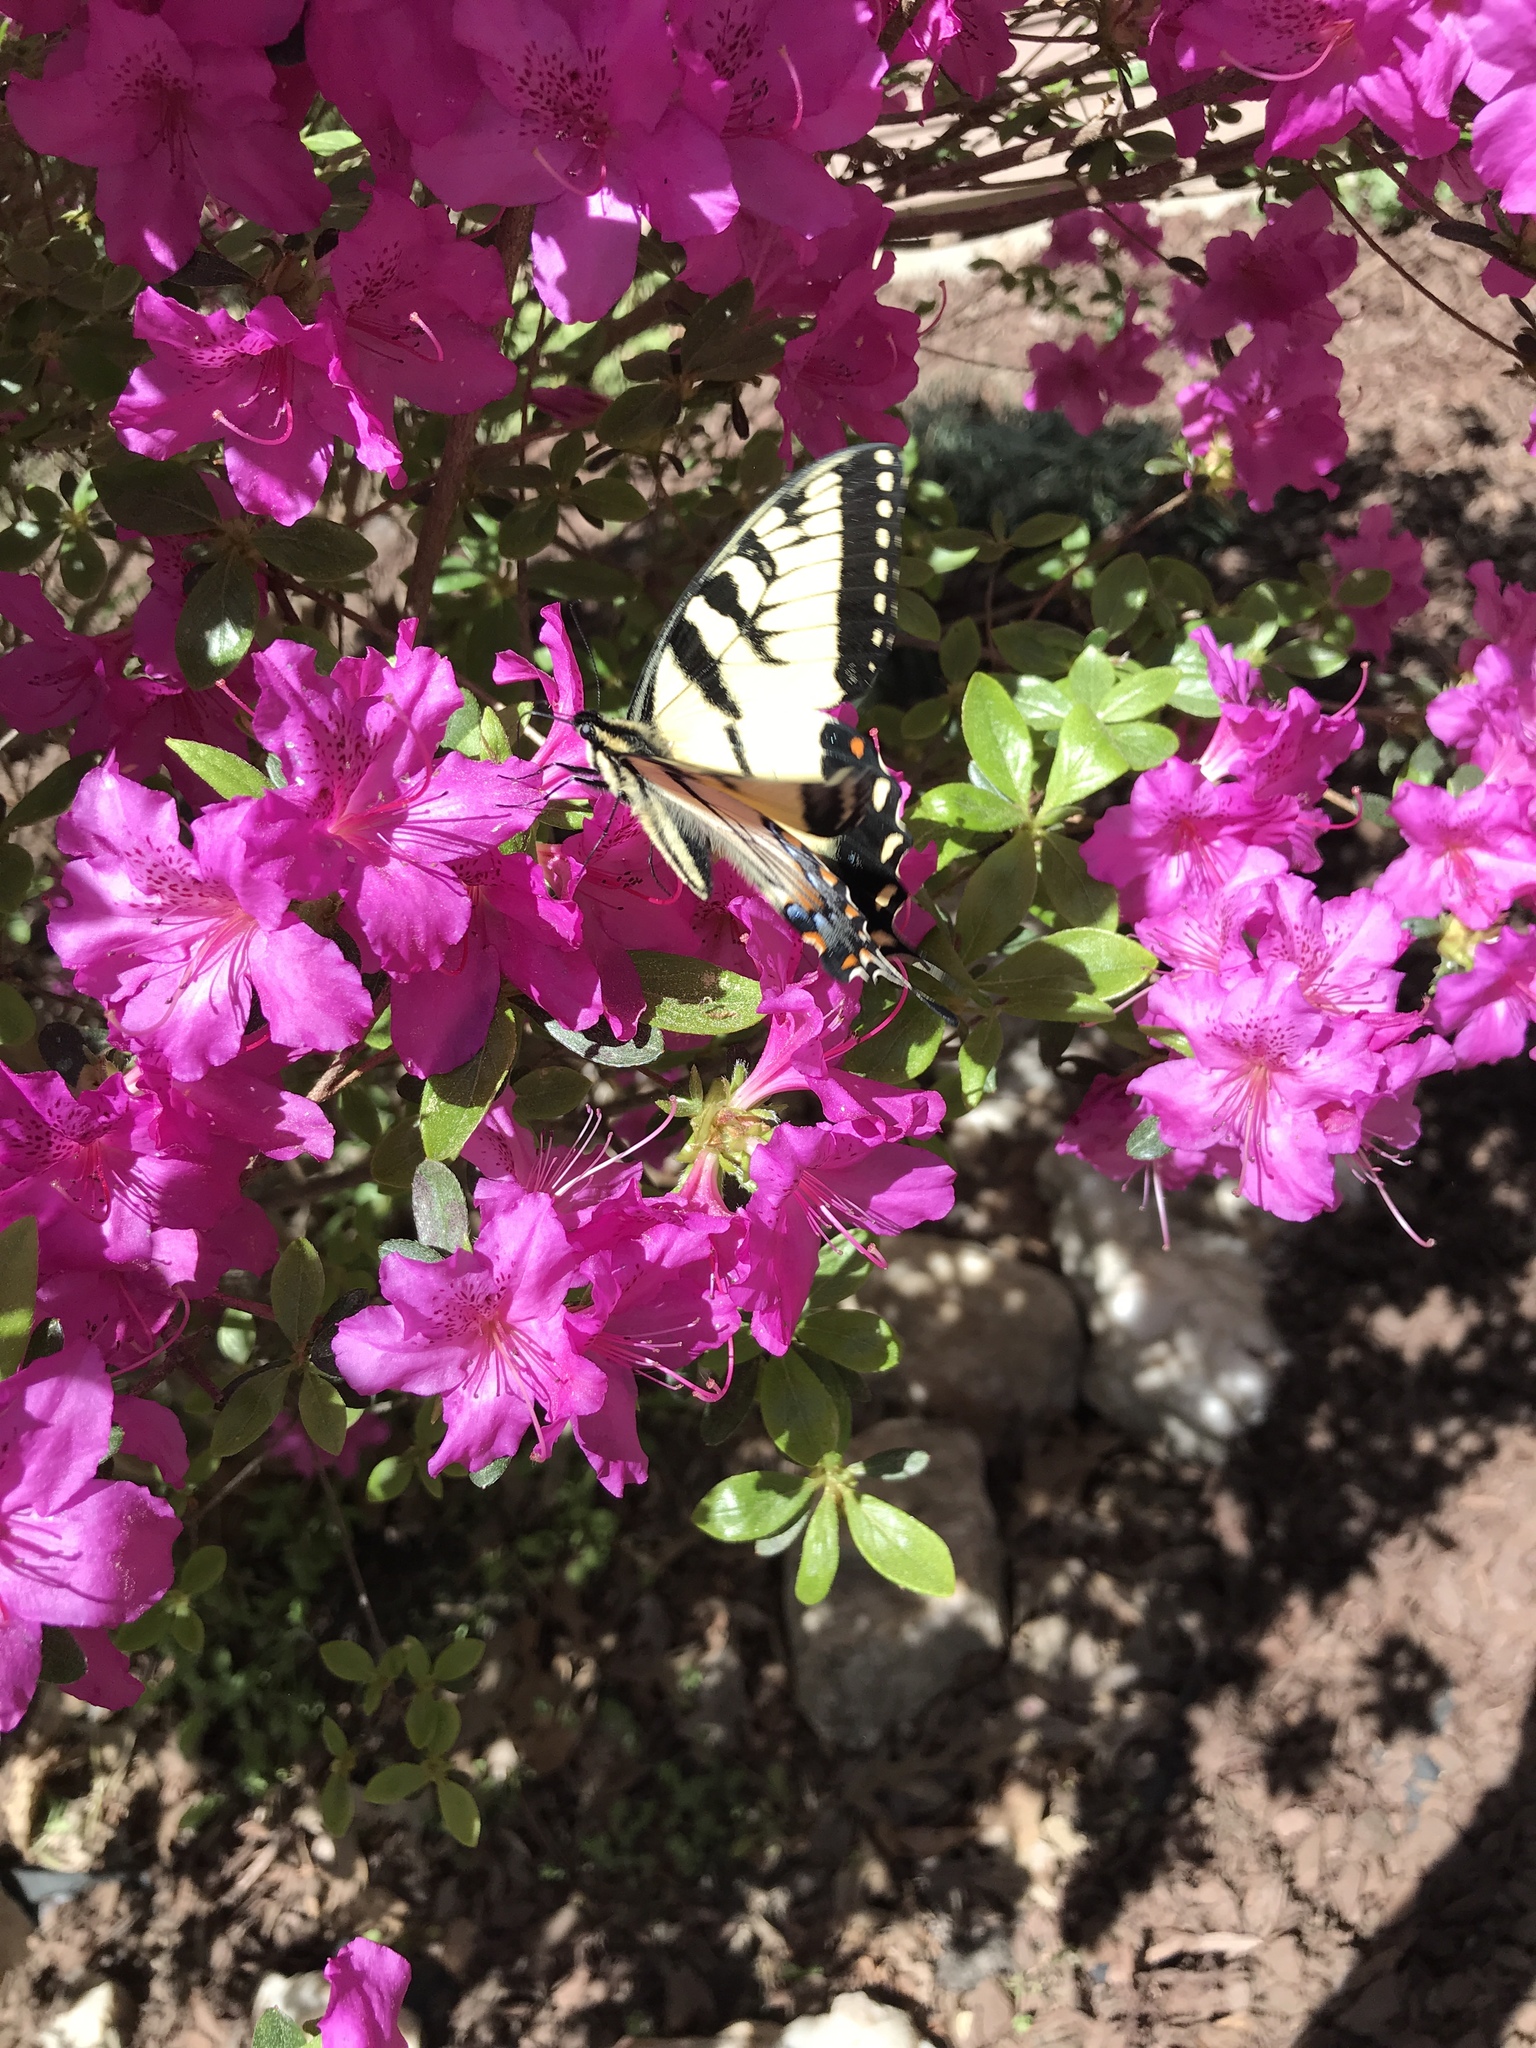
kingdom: Animalia
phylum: Arthropoda
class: Insecta
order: Lepidoptera
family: Papilionidae
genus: Papilio
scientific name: Papilio glaucus
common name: Tiger swallowtail
